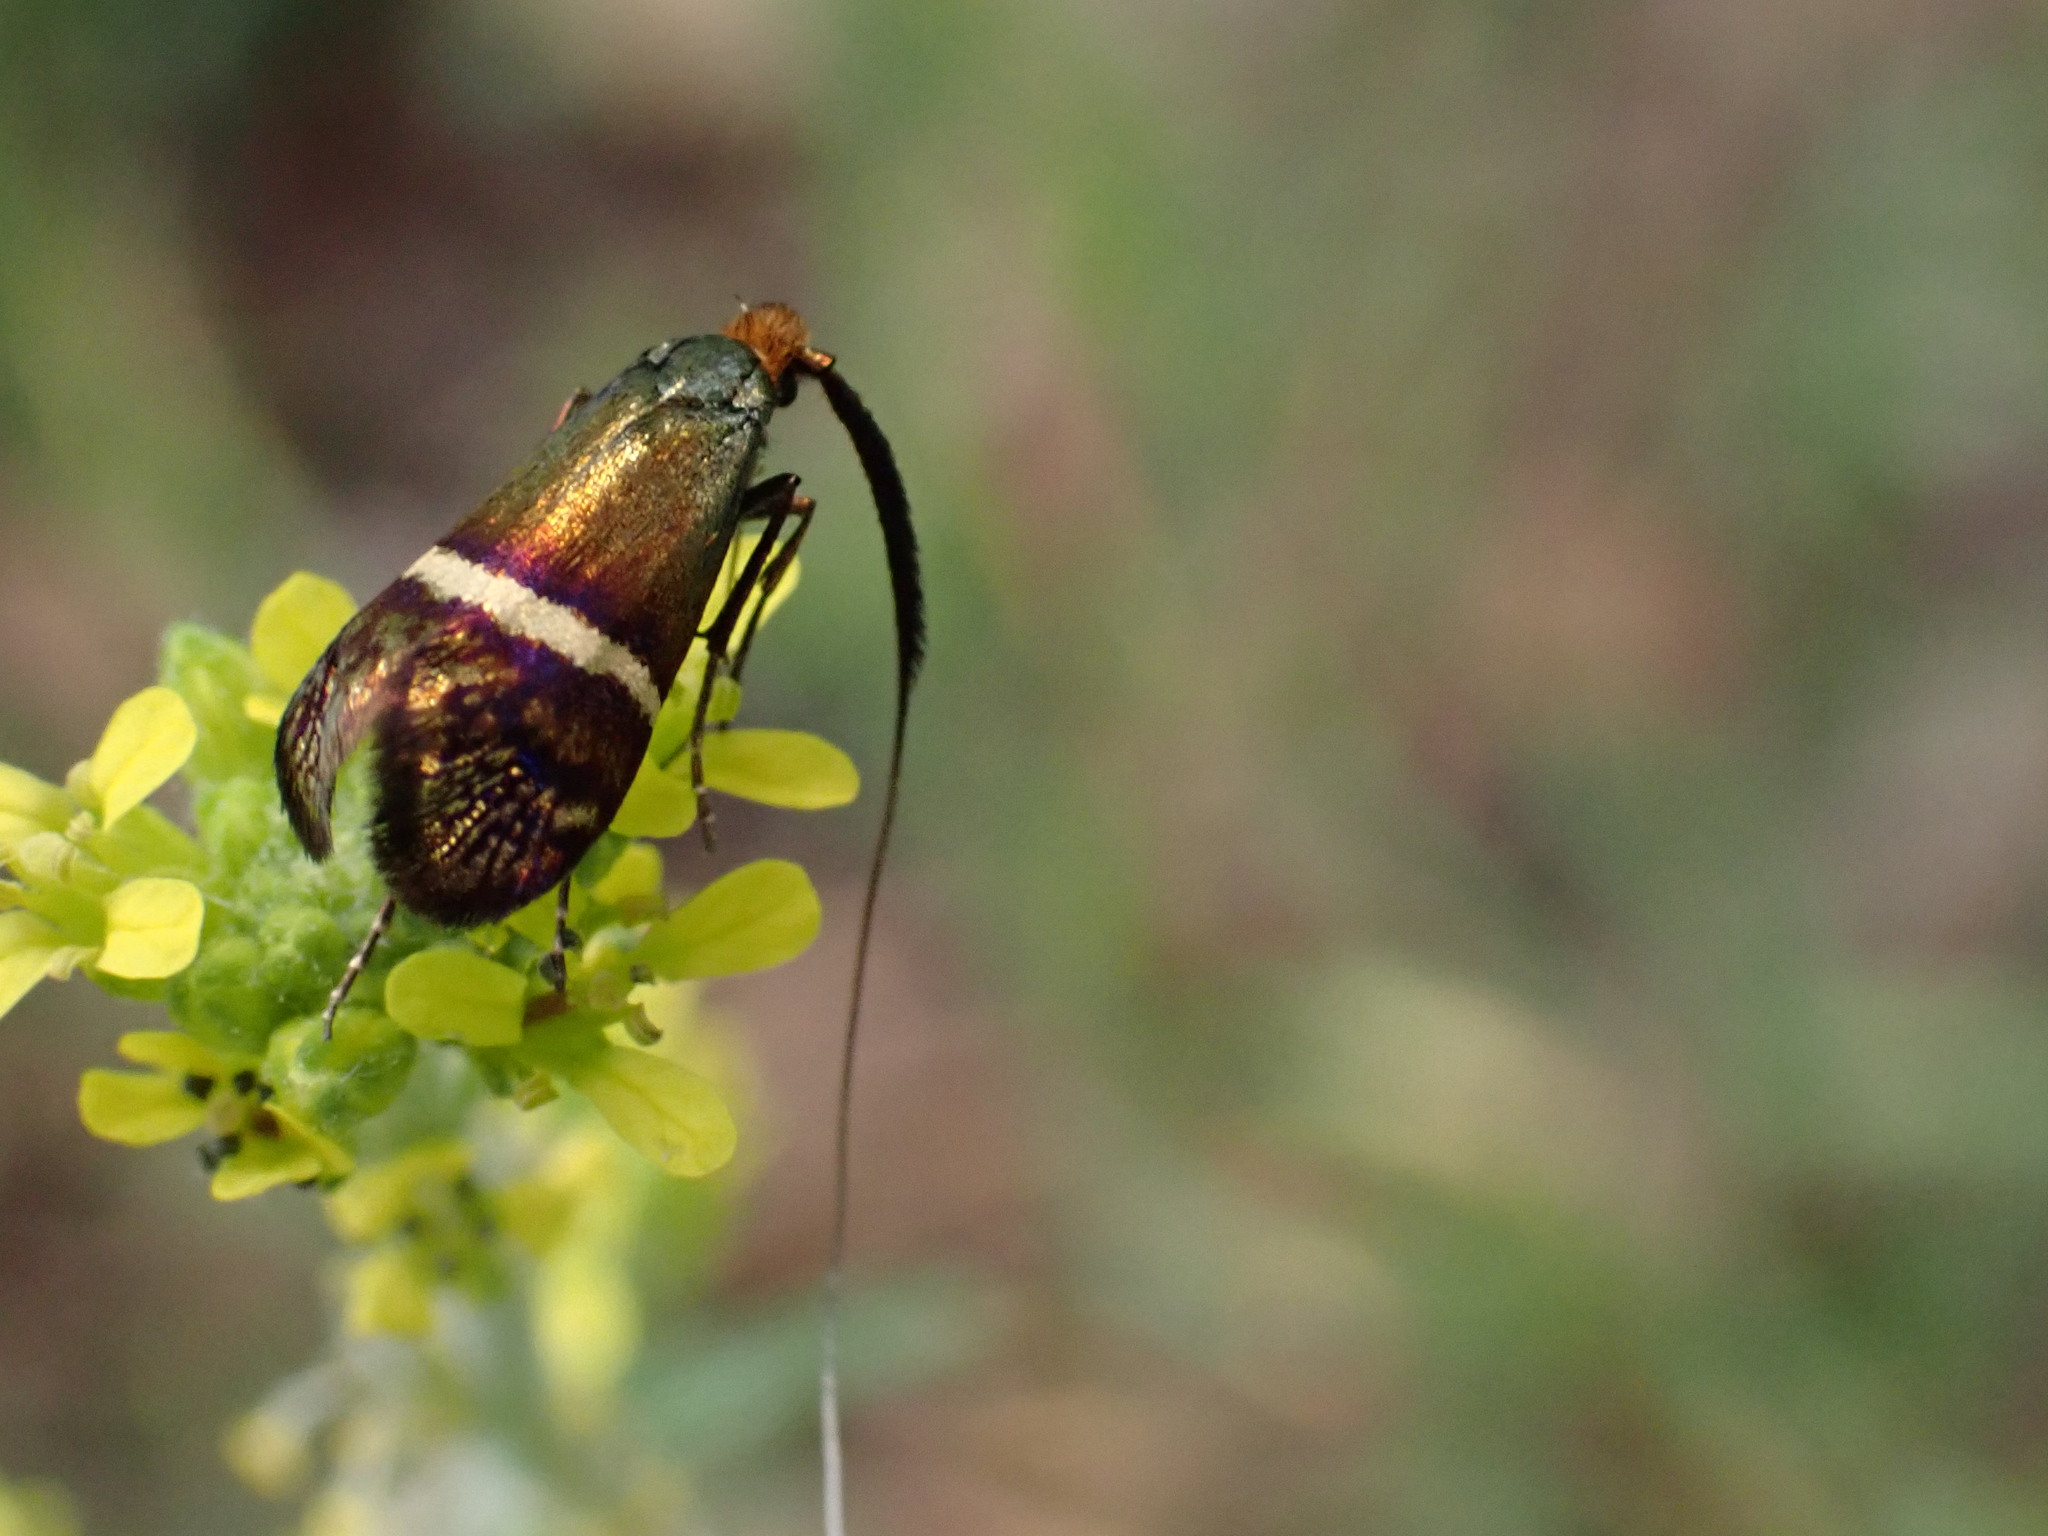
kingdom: Animalia
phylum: Arthropoda
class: Insecta
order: Lepidoptera
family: Adelidae
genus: Adela
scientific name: Adela australis
